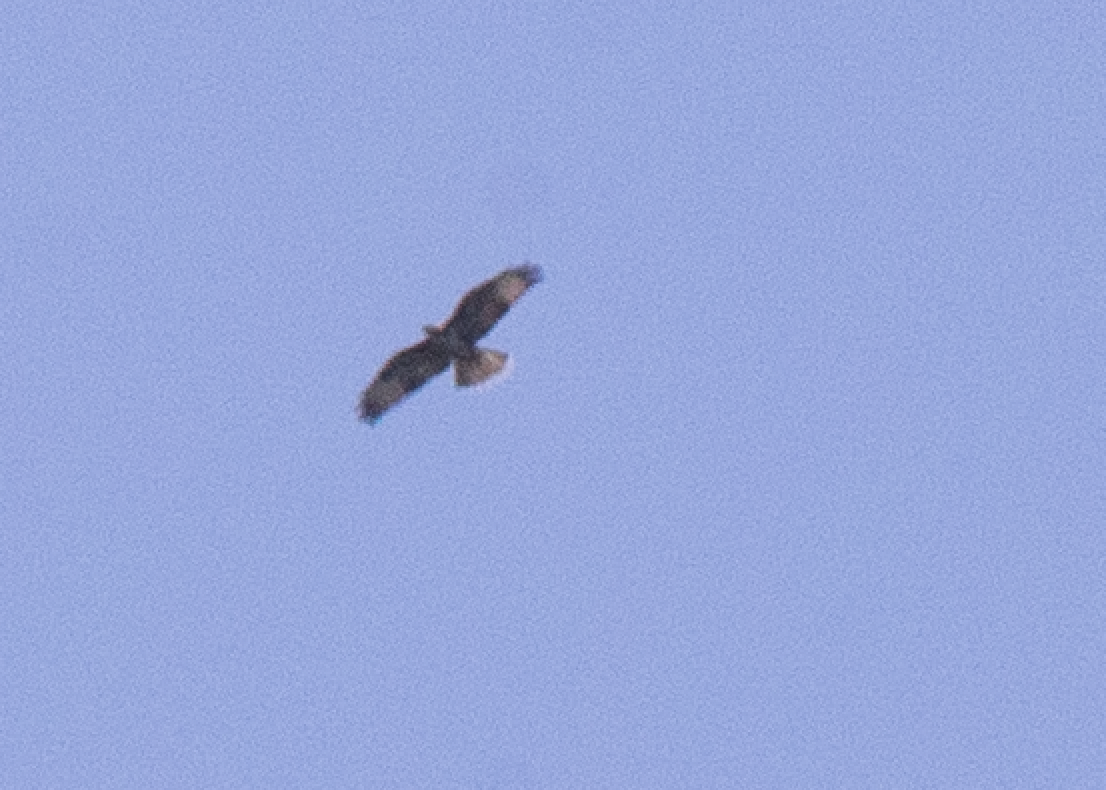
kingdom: Animalia
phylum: Chordata
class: Aves
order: Accipitriformes
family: Accipitridae
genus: Buteo
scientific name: Buteo buteo
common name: Common buzzard
